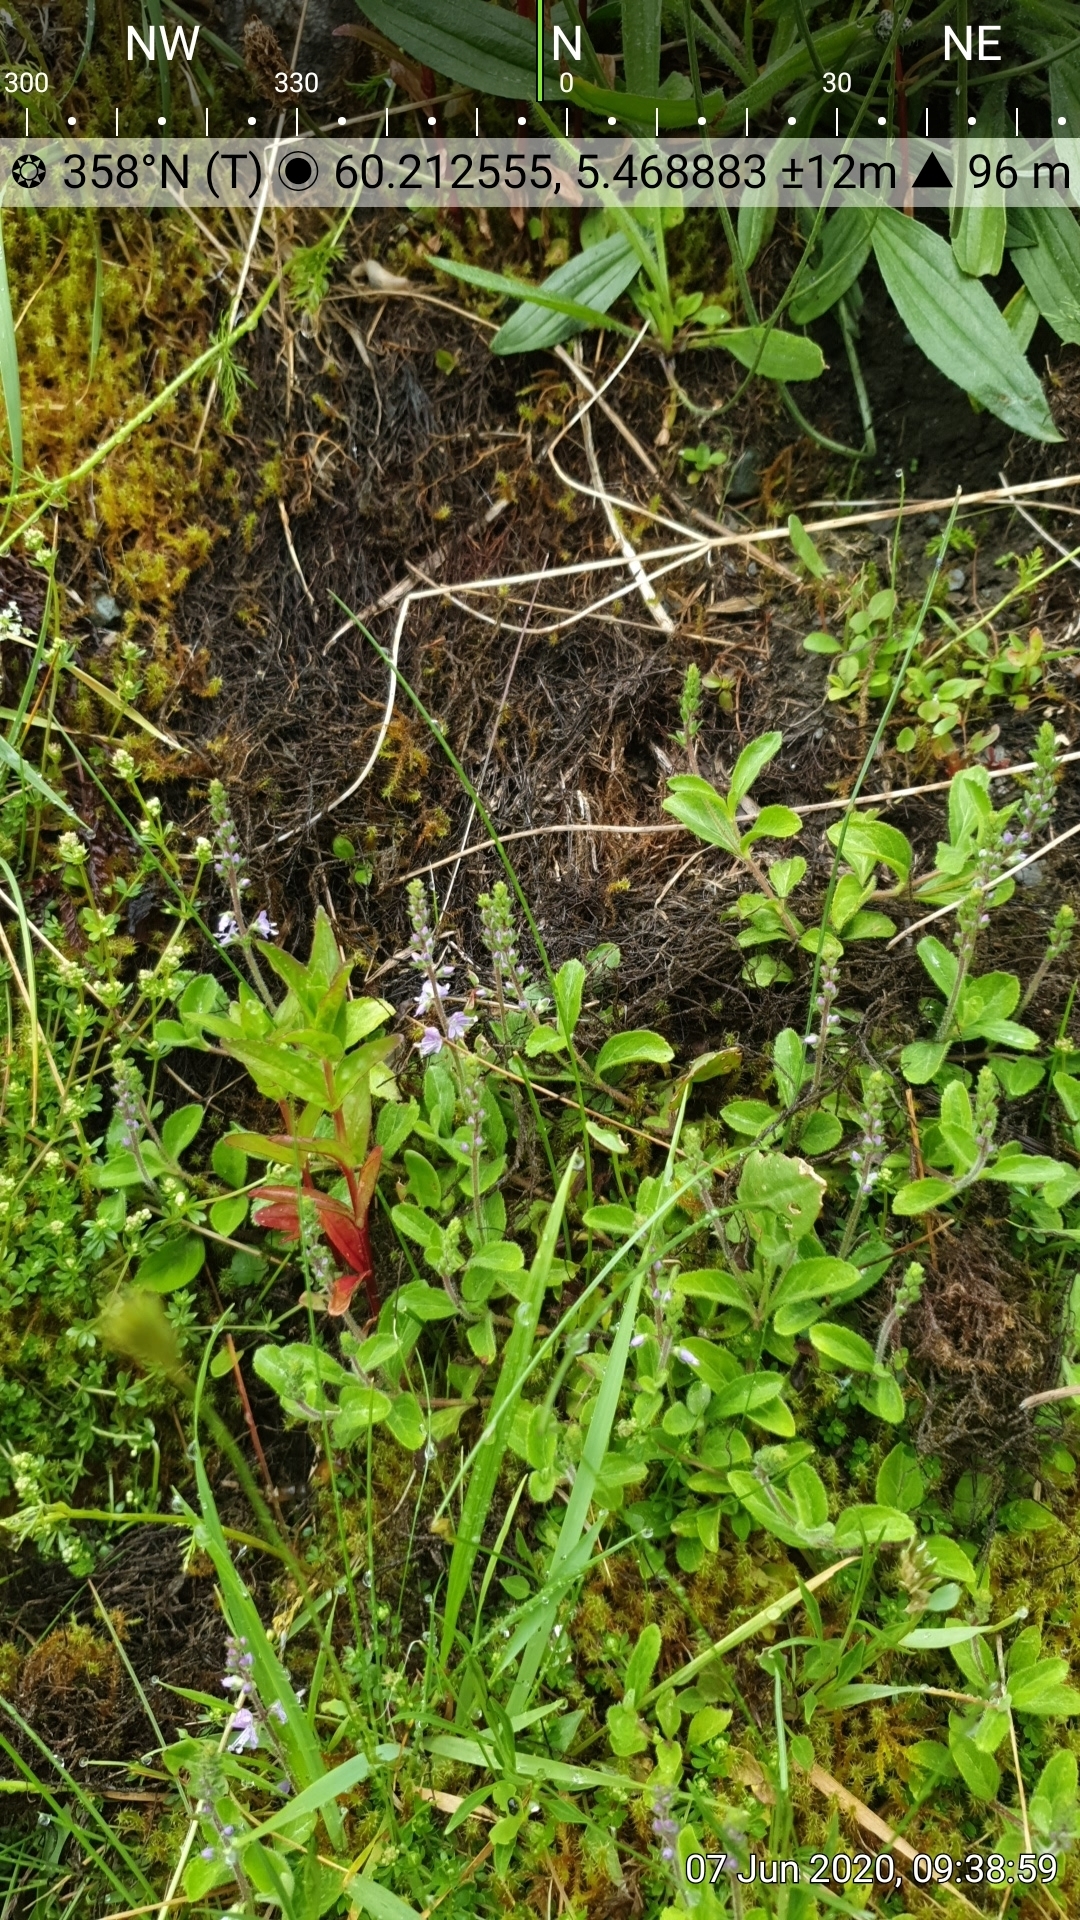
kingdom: Plantae
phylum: Tracheophyta
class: Magnoliopsida
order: Lamiales
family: Plantaginaceae
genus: Veronica
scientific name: Veronica officinalis
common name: Common speedwell
